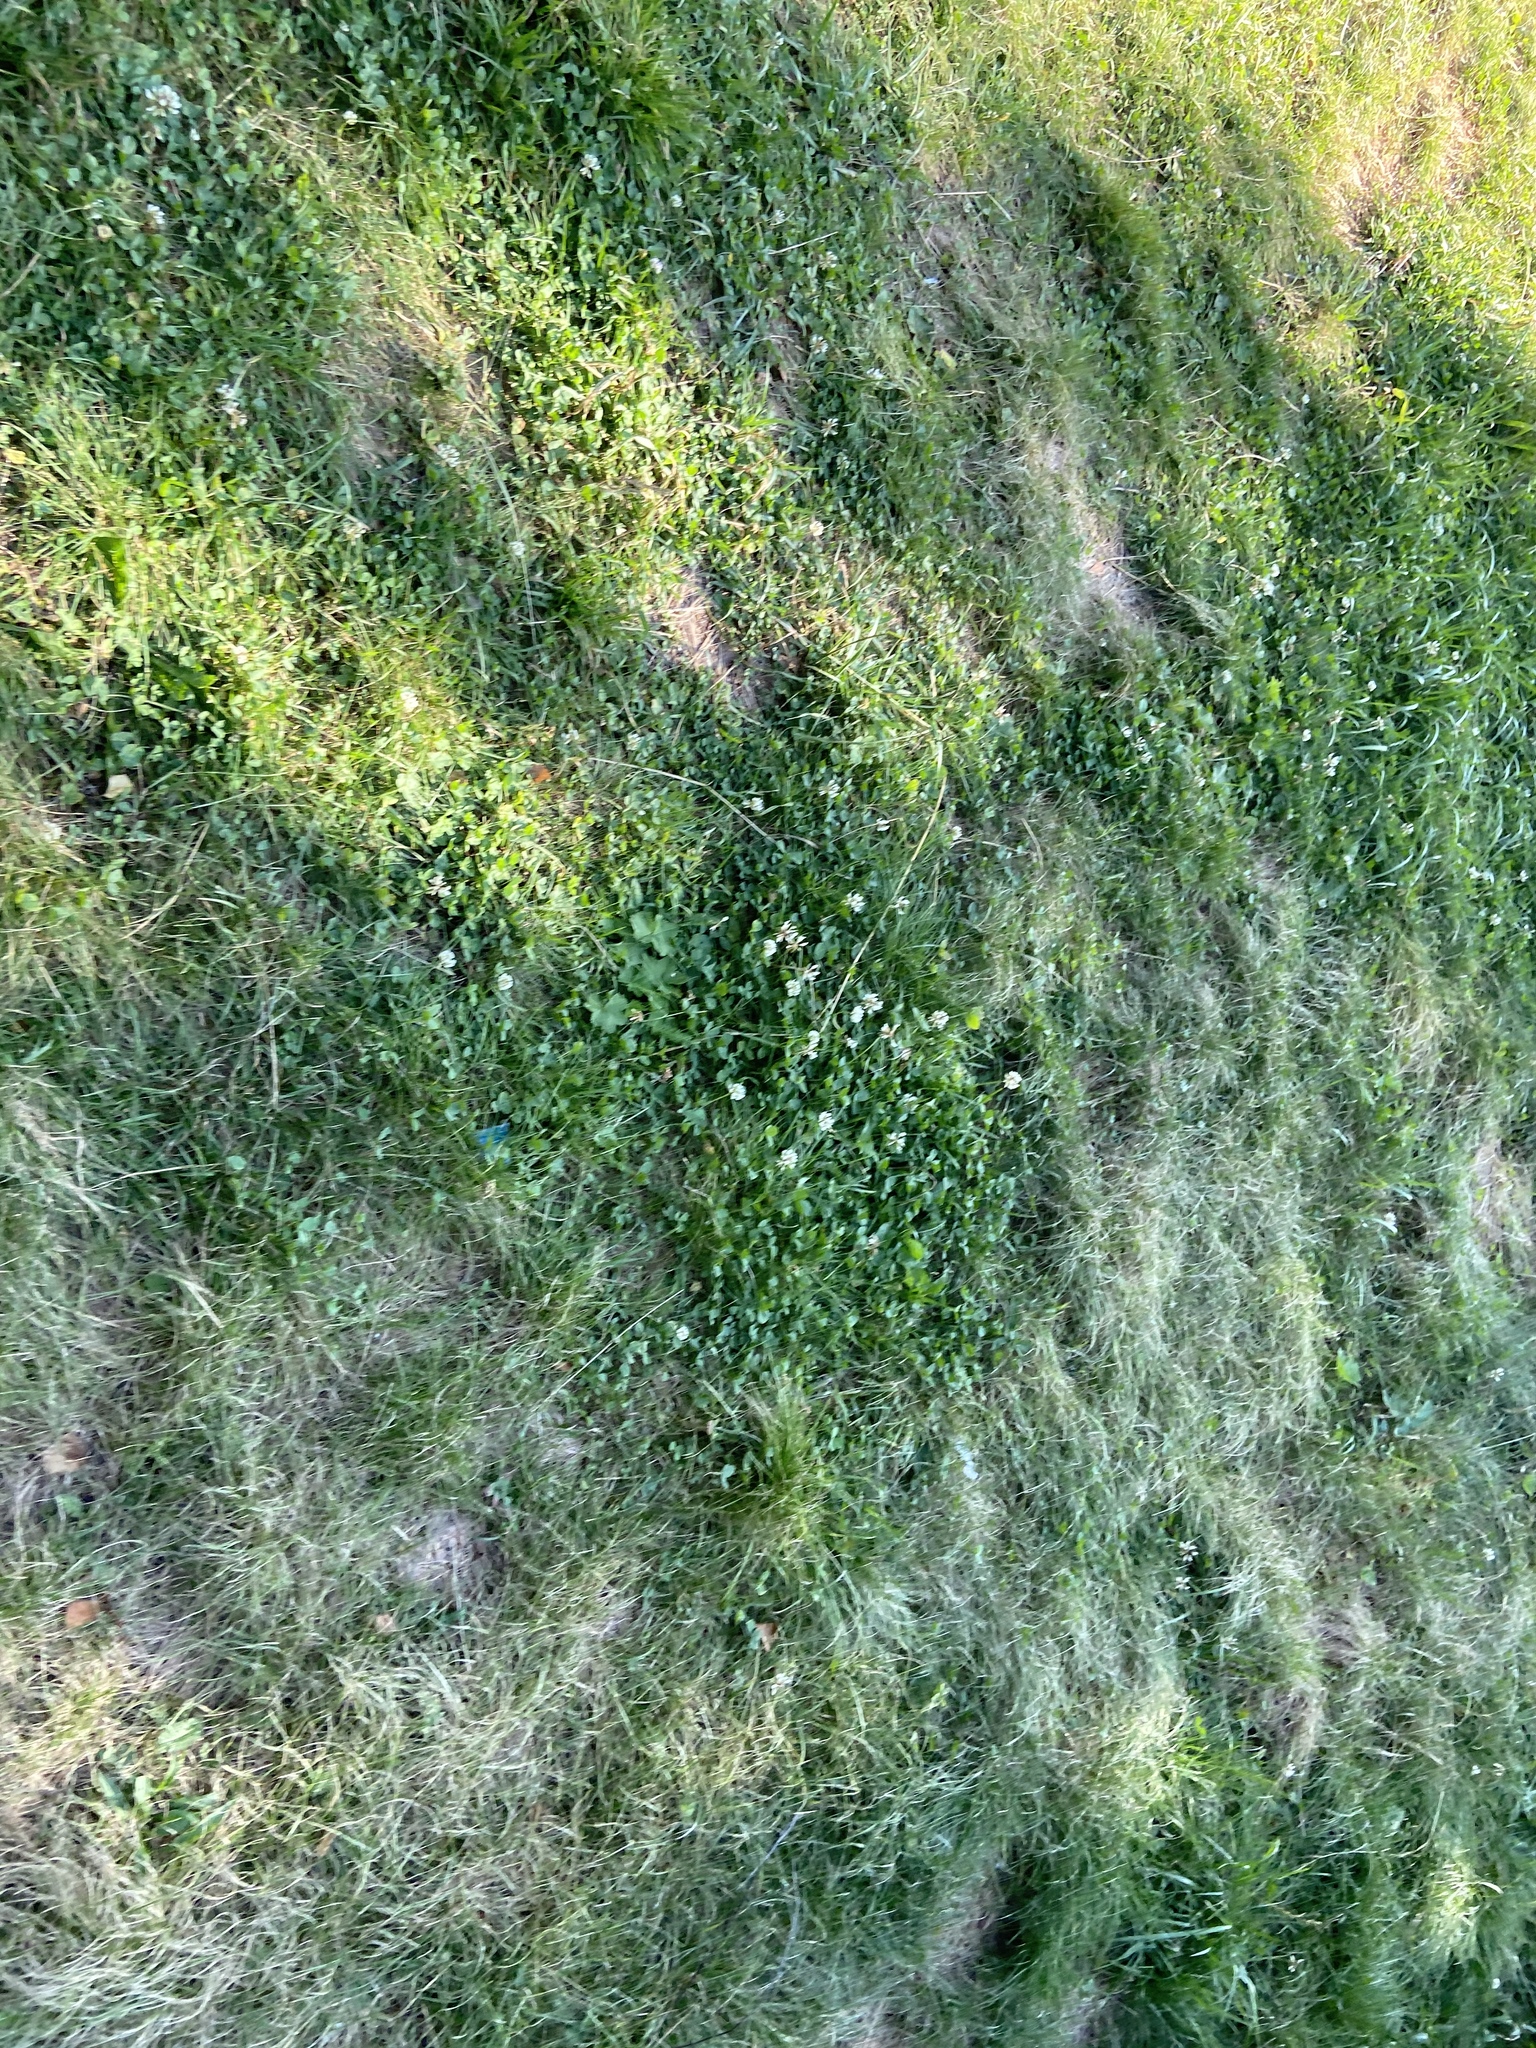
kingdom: Plantae
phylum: Tracheophyta
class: Magnoliopsida
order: Fabales
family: Fabaceae
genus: Trifolium
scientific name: Trifolium repens
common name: White clover
